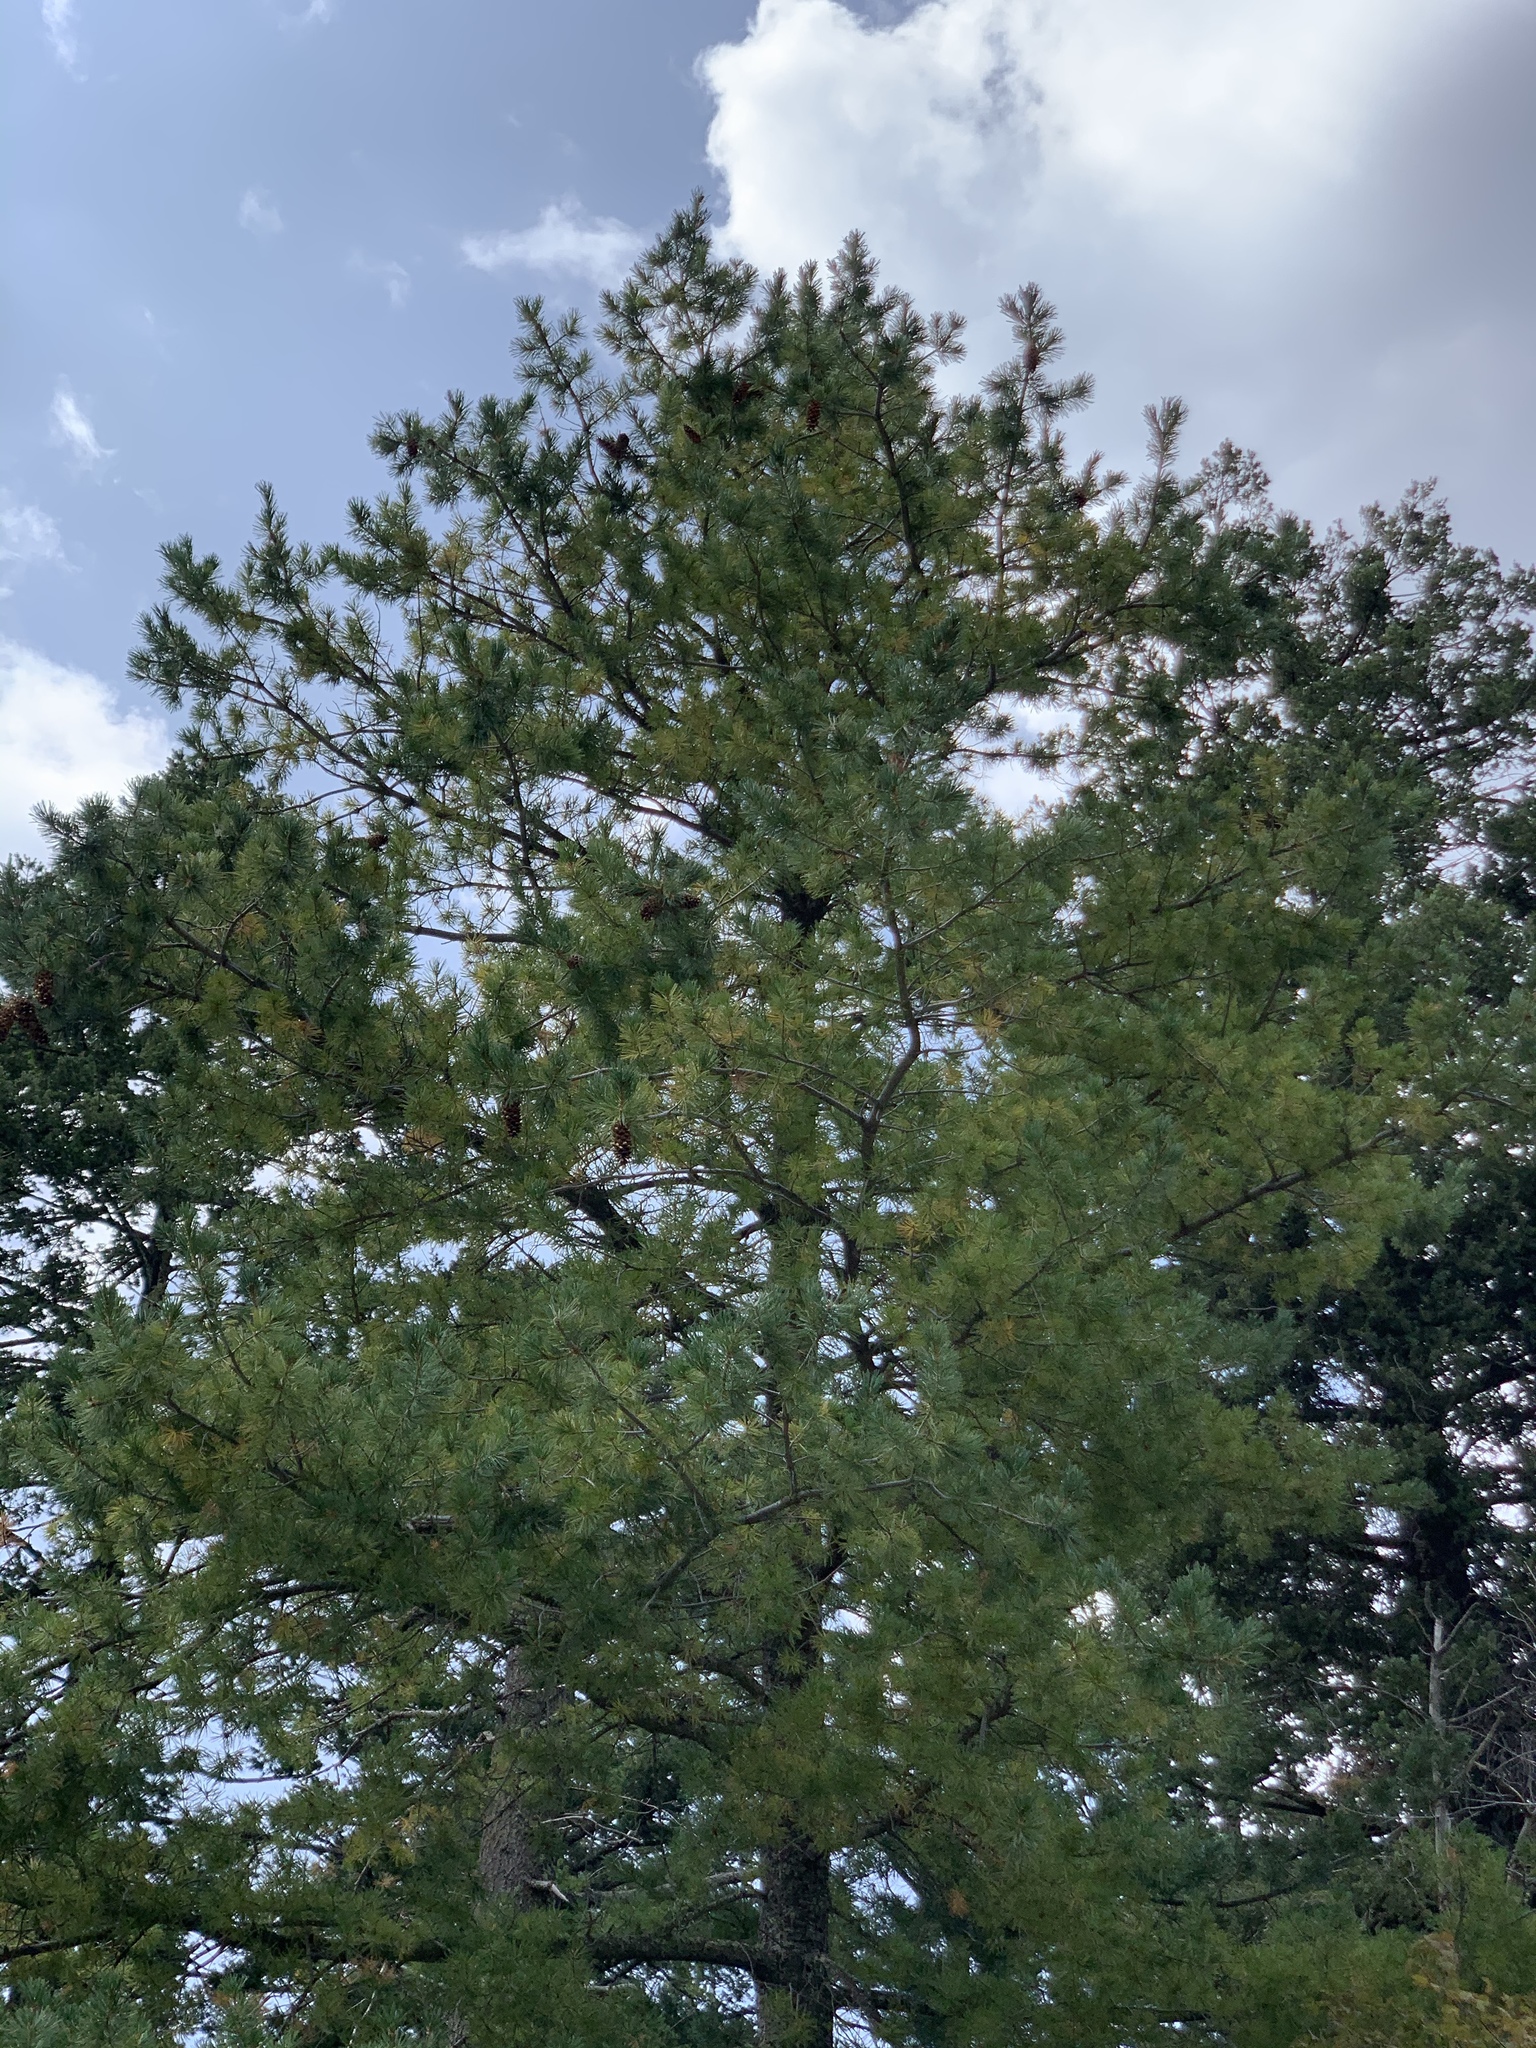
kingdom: Plantae
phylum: Tracheophyta
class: Pinopsida
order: Pinales
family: Pinaceae
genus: Pinus
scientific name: Pinus strobiformis
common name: Southwestern white pine
